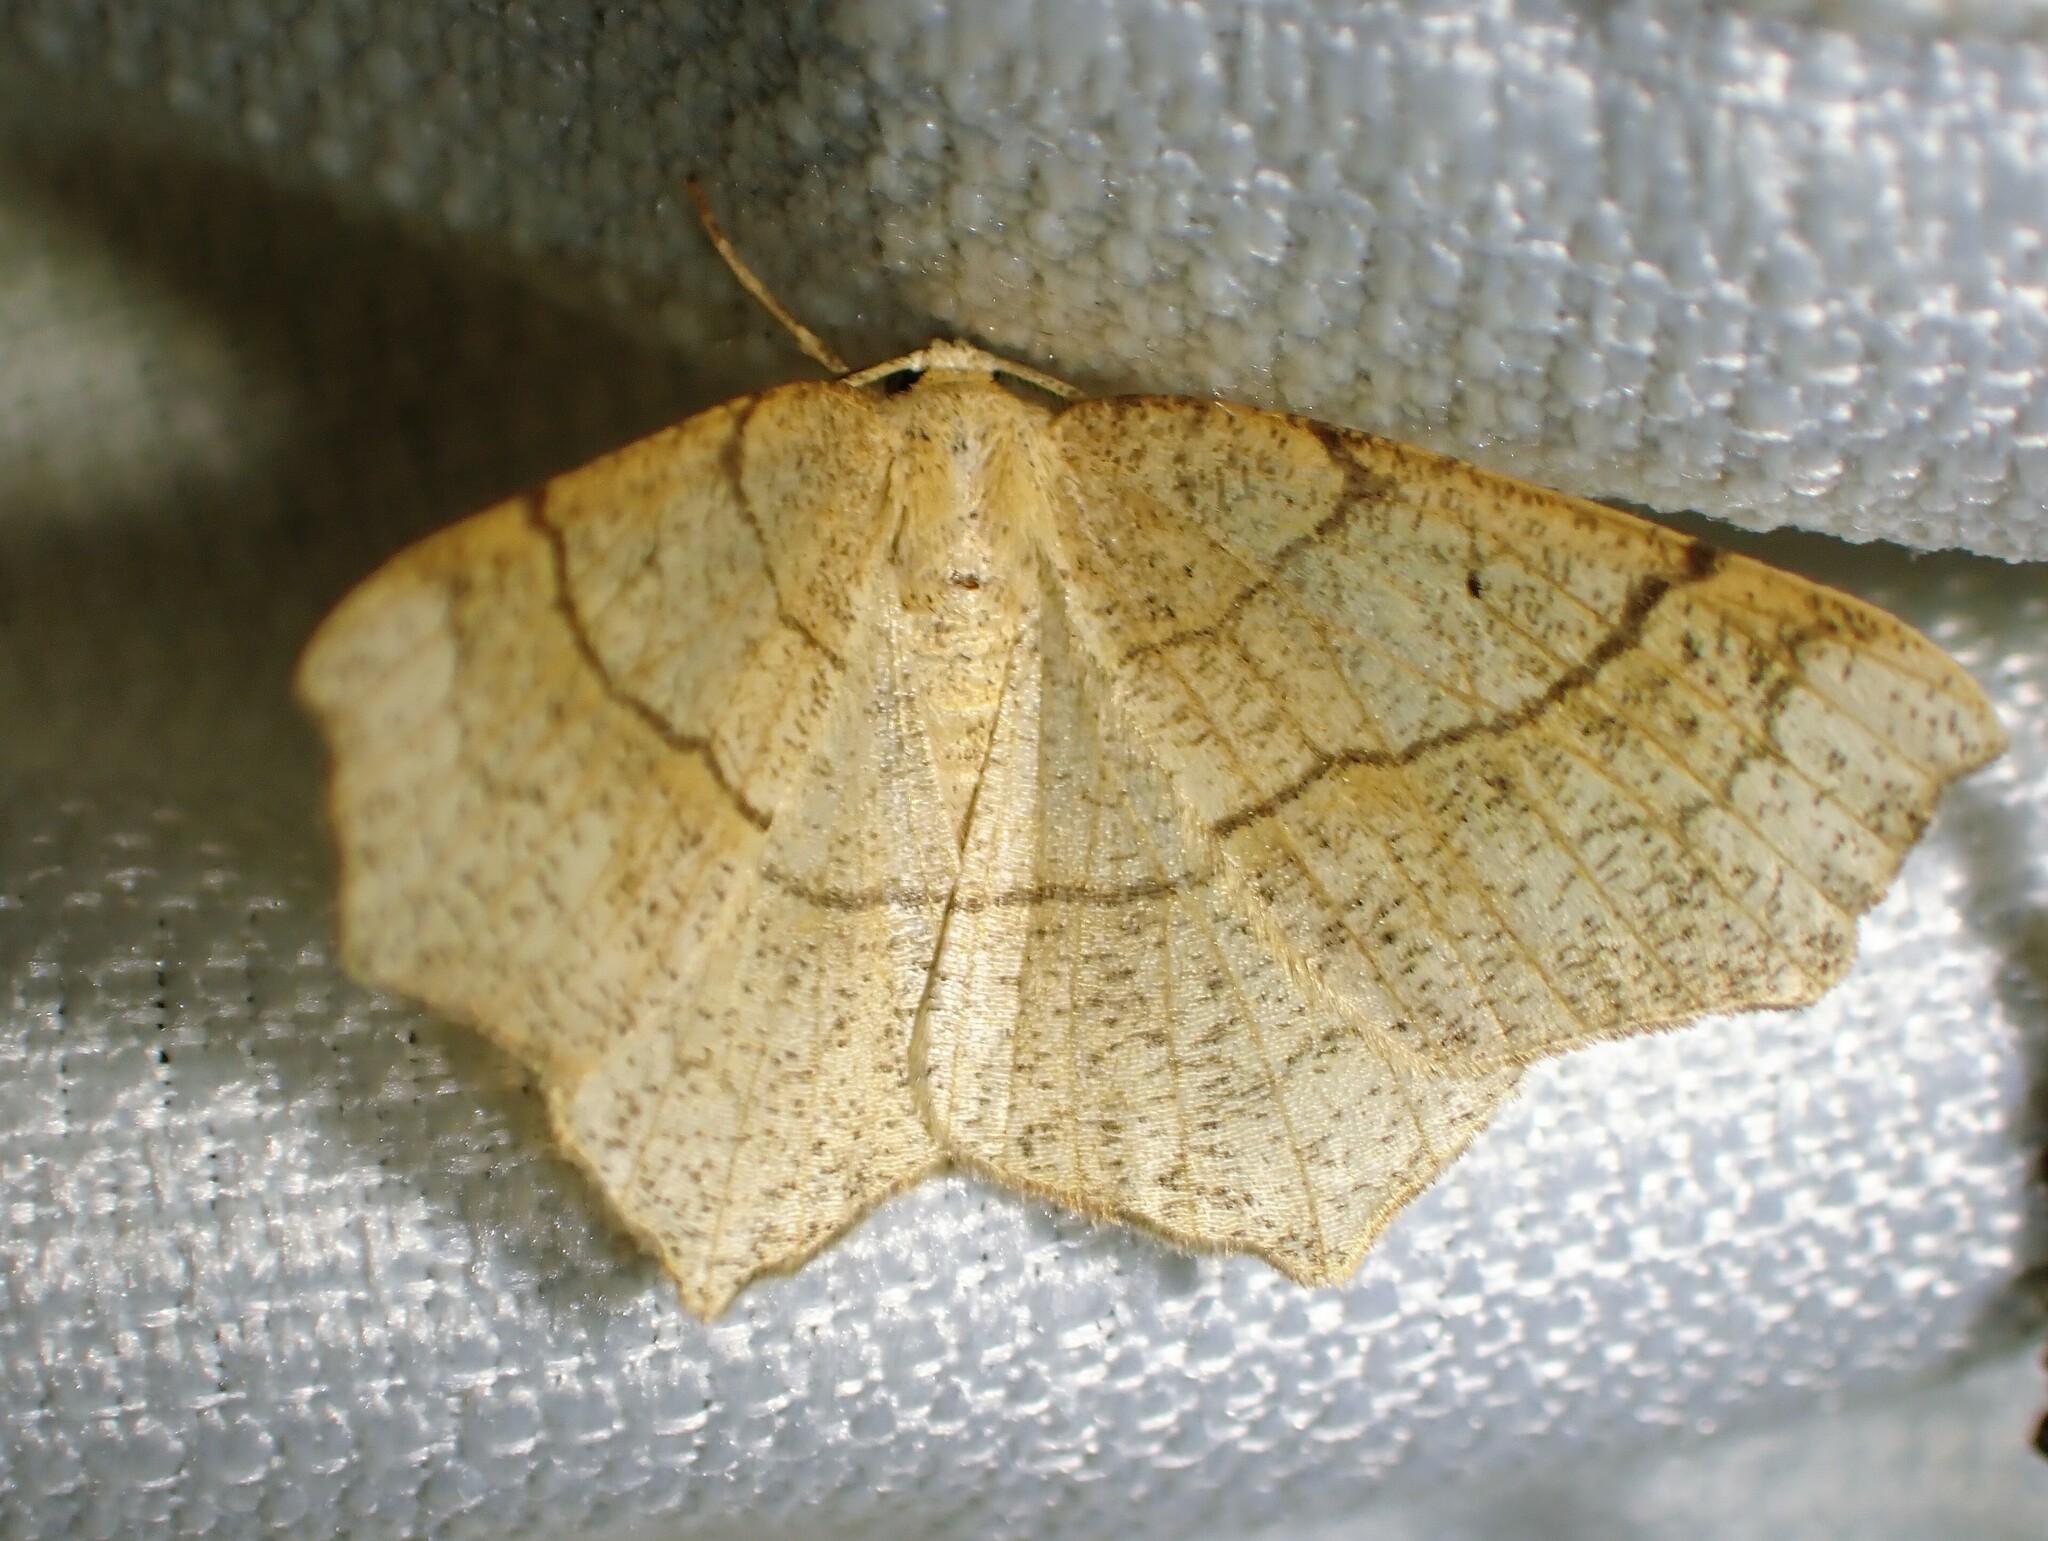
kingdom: Animalia
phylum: Arthropoda
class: Insecta
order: Lepidoptera
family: Geometridae
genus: Besma
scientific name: Besma quercivoraria
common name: Oak besma
